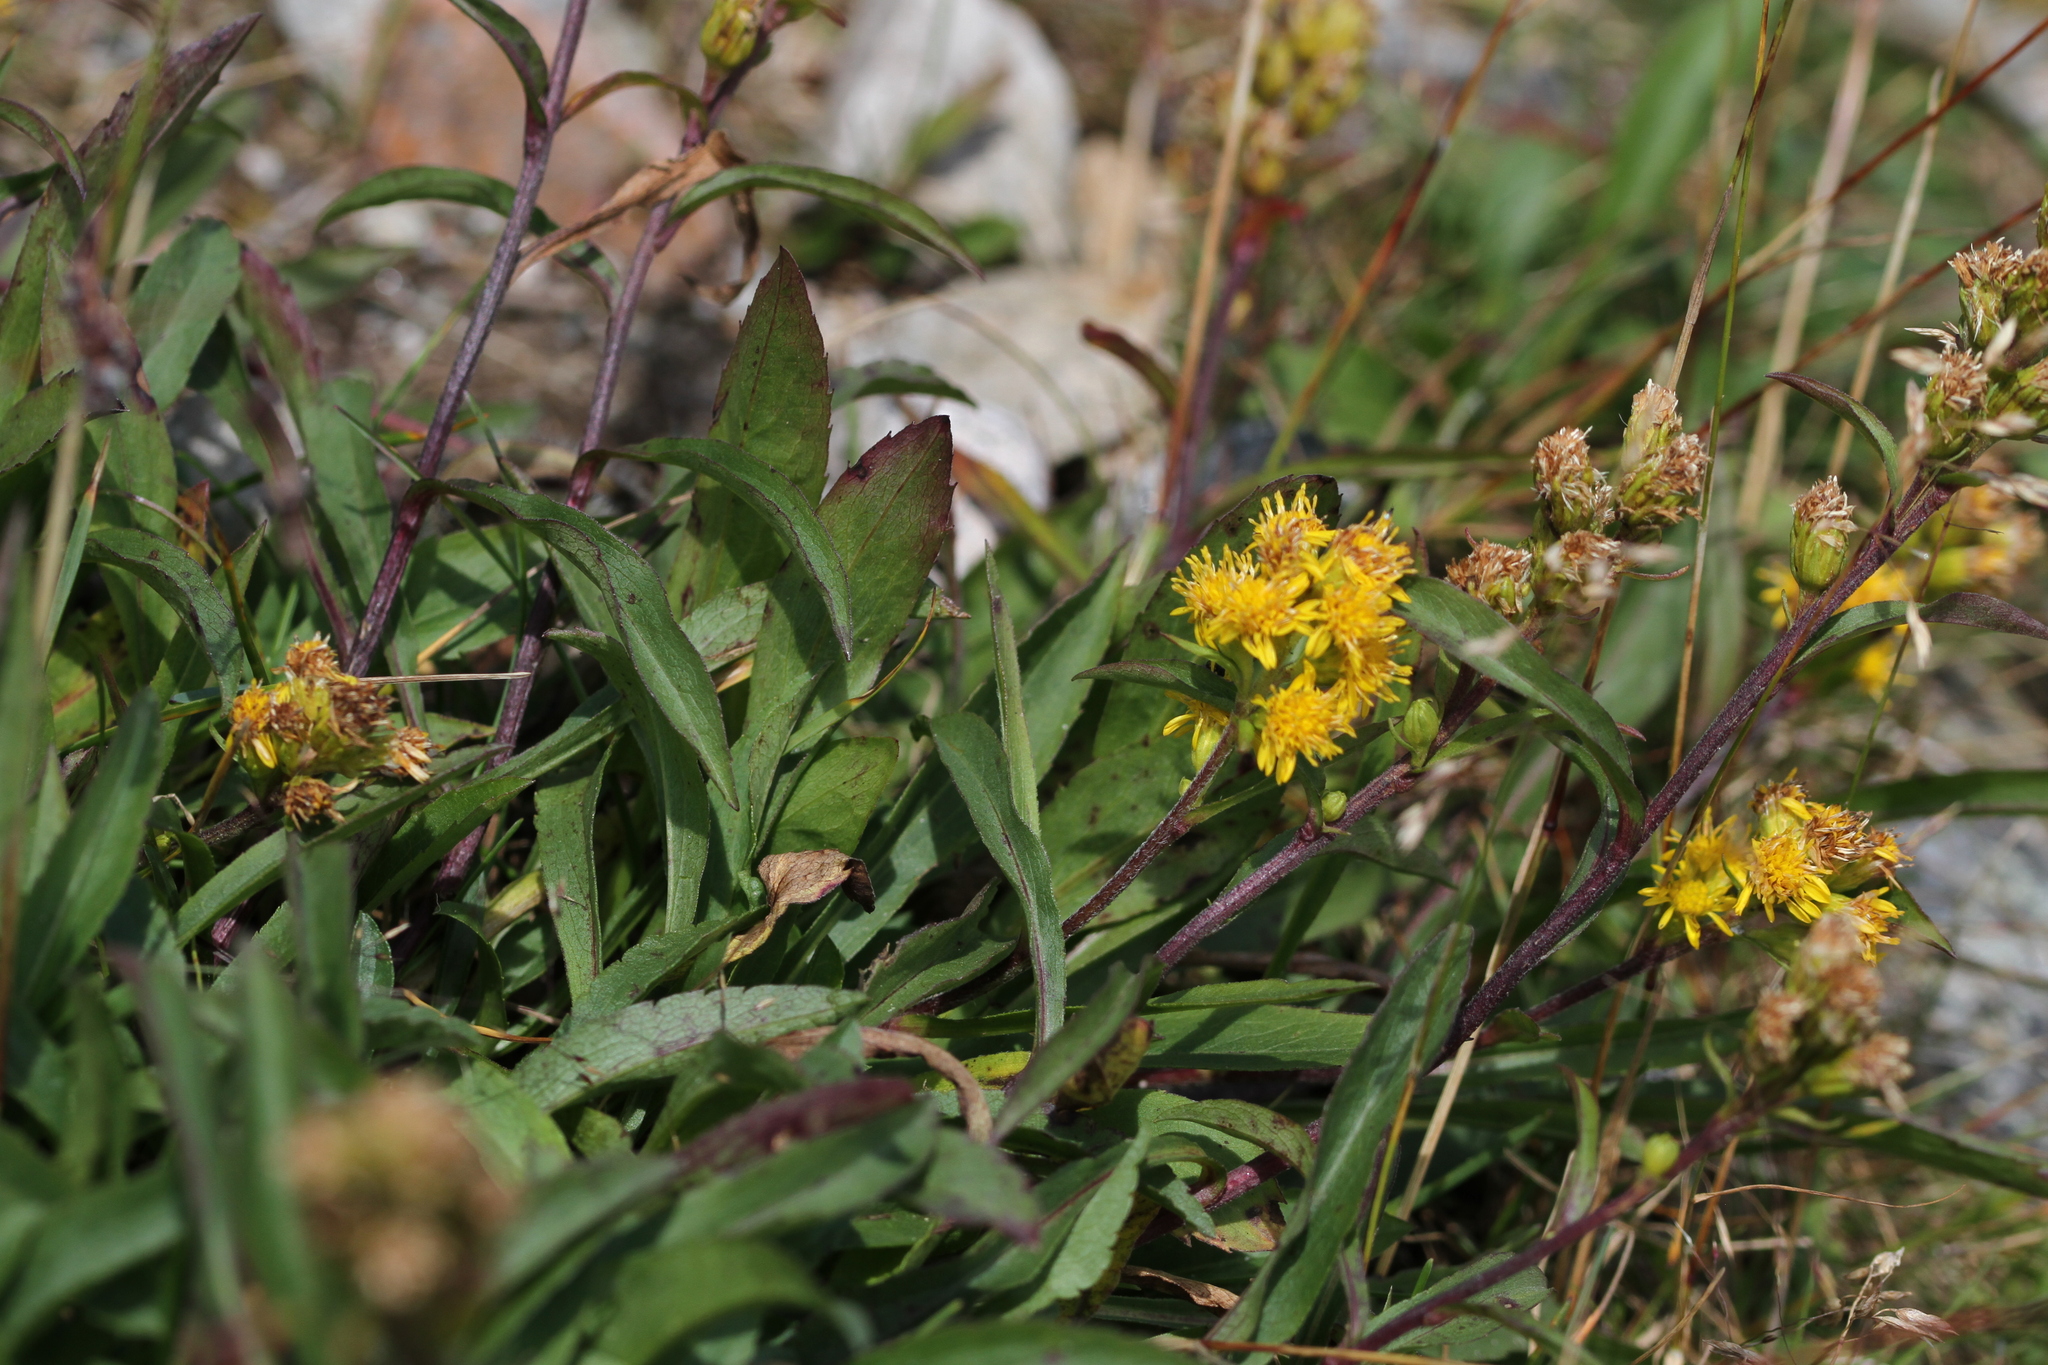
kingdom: Plantae
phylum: Tracheophyta
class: Magnoliopsida
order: Asterales
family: Asteraceae
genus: Solidago
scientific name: Solidago leiocarpa
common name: Cutler's alpine goldenrod
